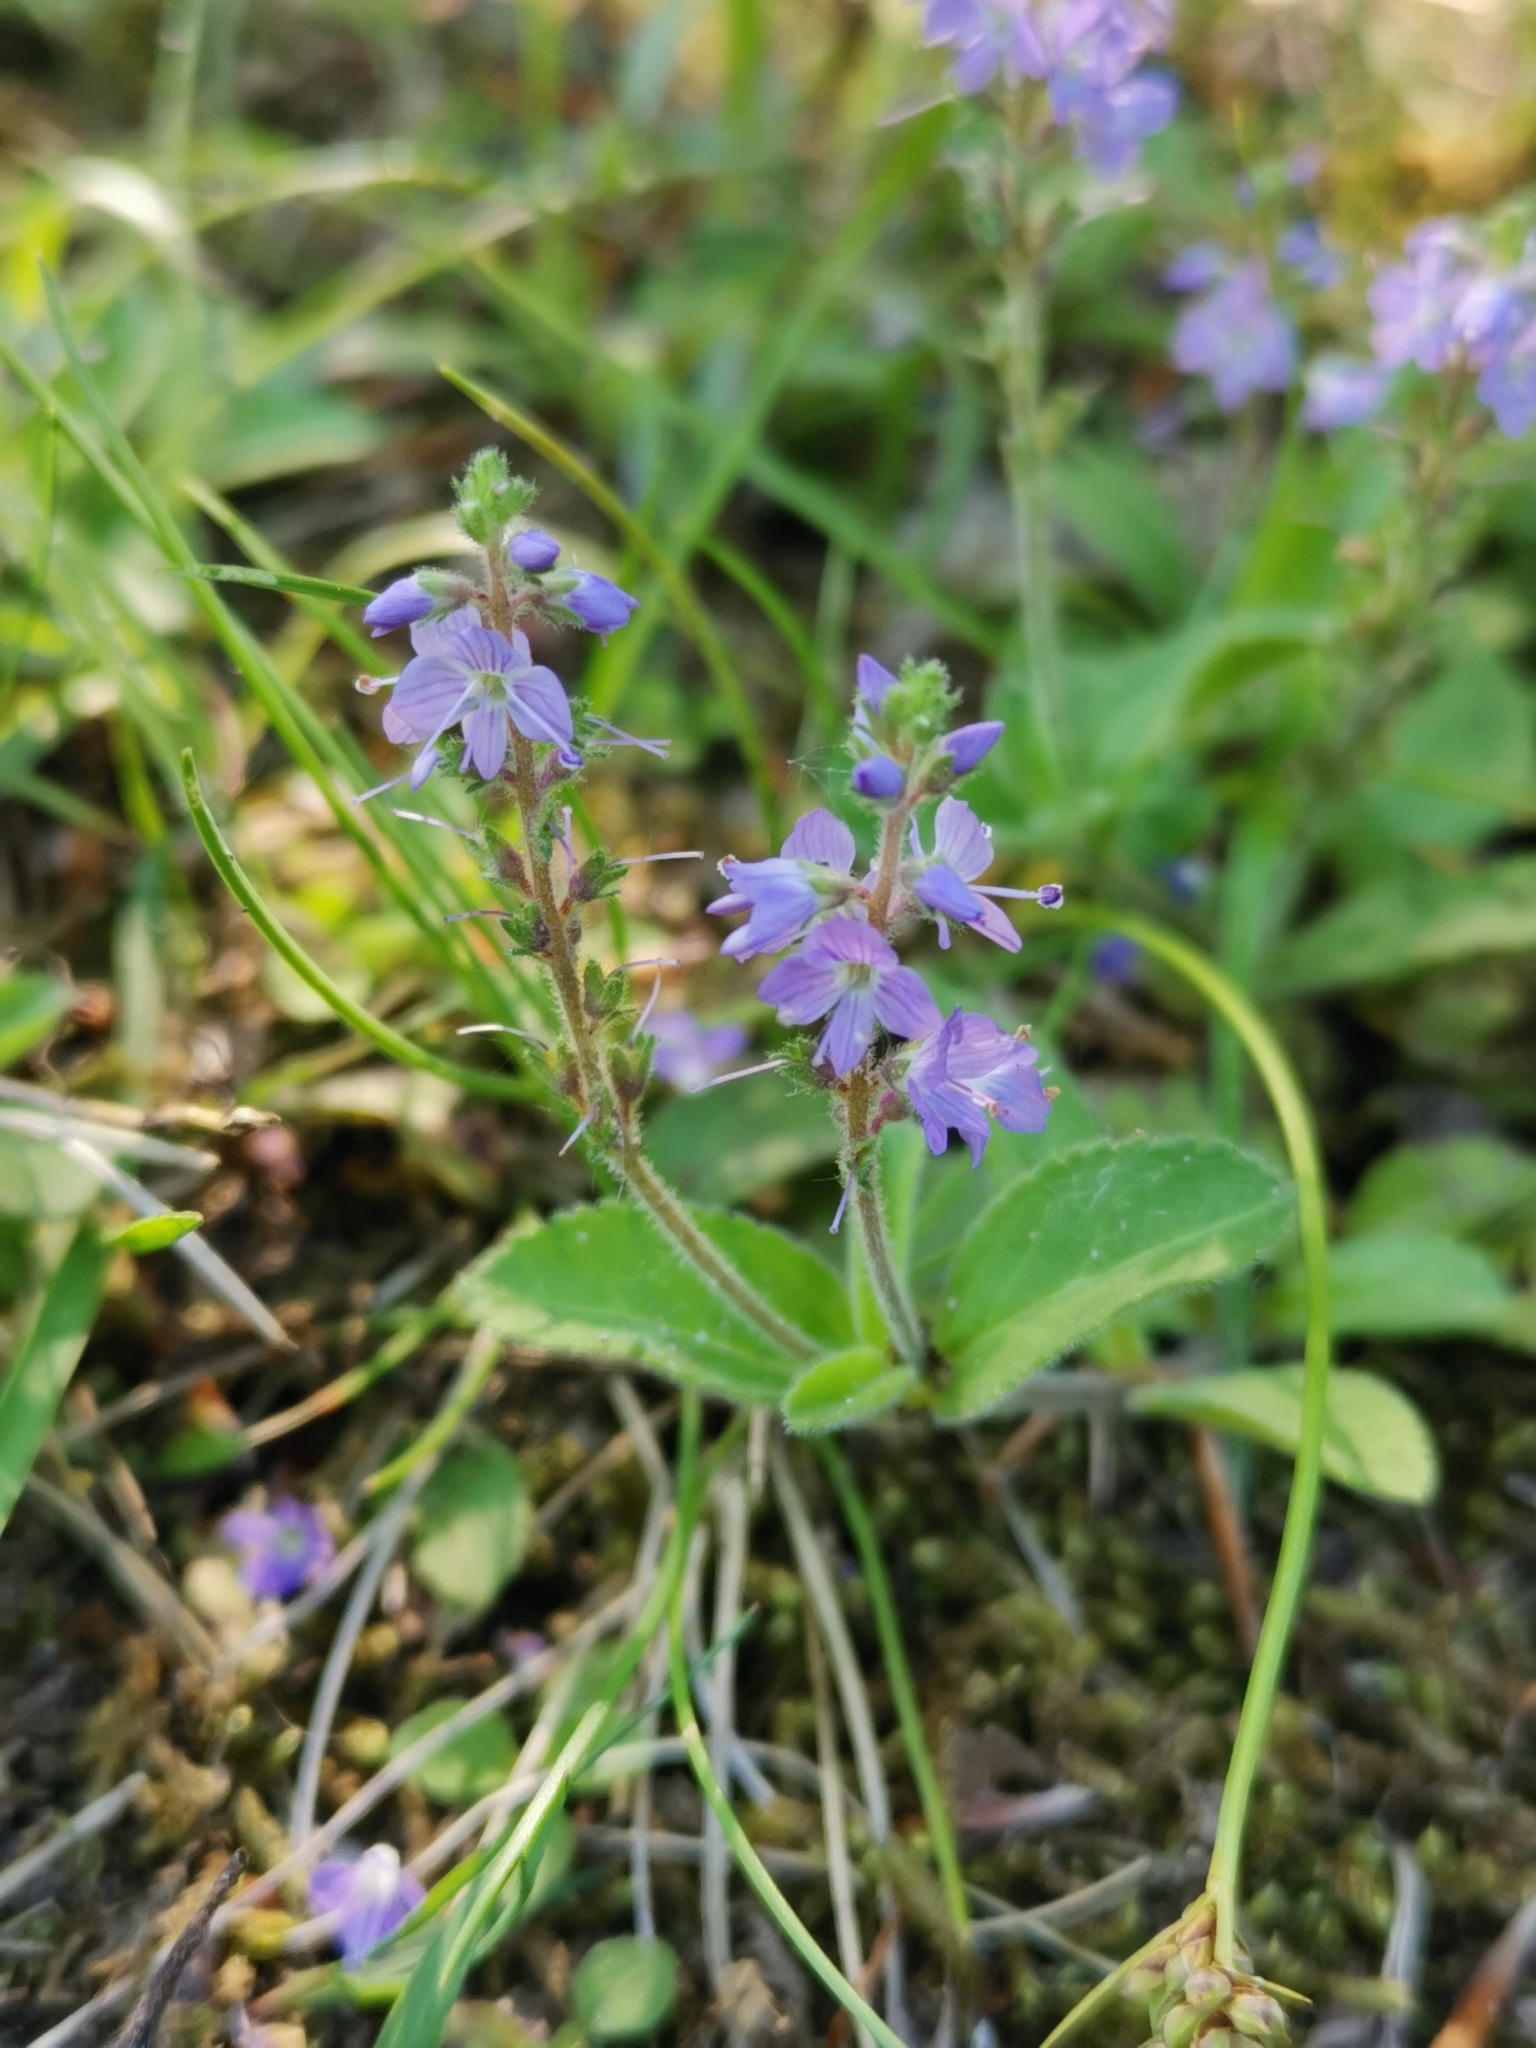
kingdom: Plantae
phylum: Tracheophyta
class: Magnoliopsida
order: Lamiales
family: Plantaginaceae
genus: Veronica
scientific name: Veronica officinalis
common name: Common speedwell
